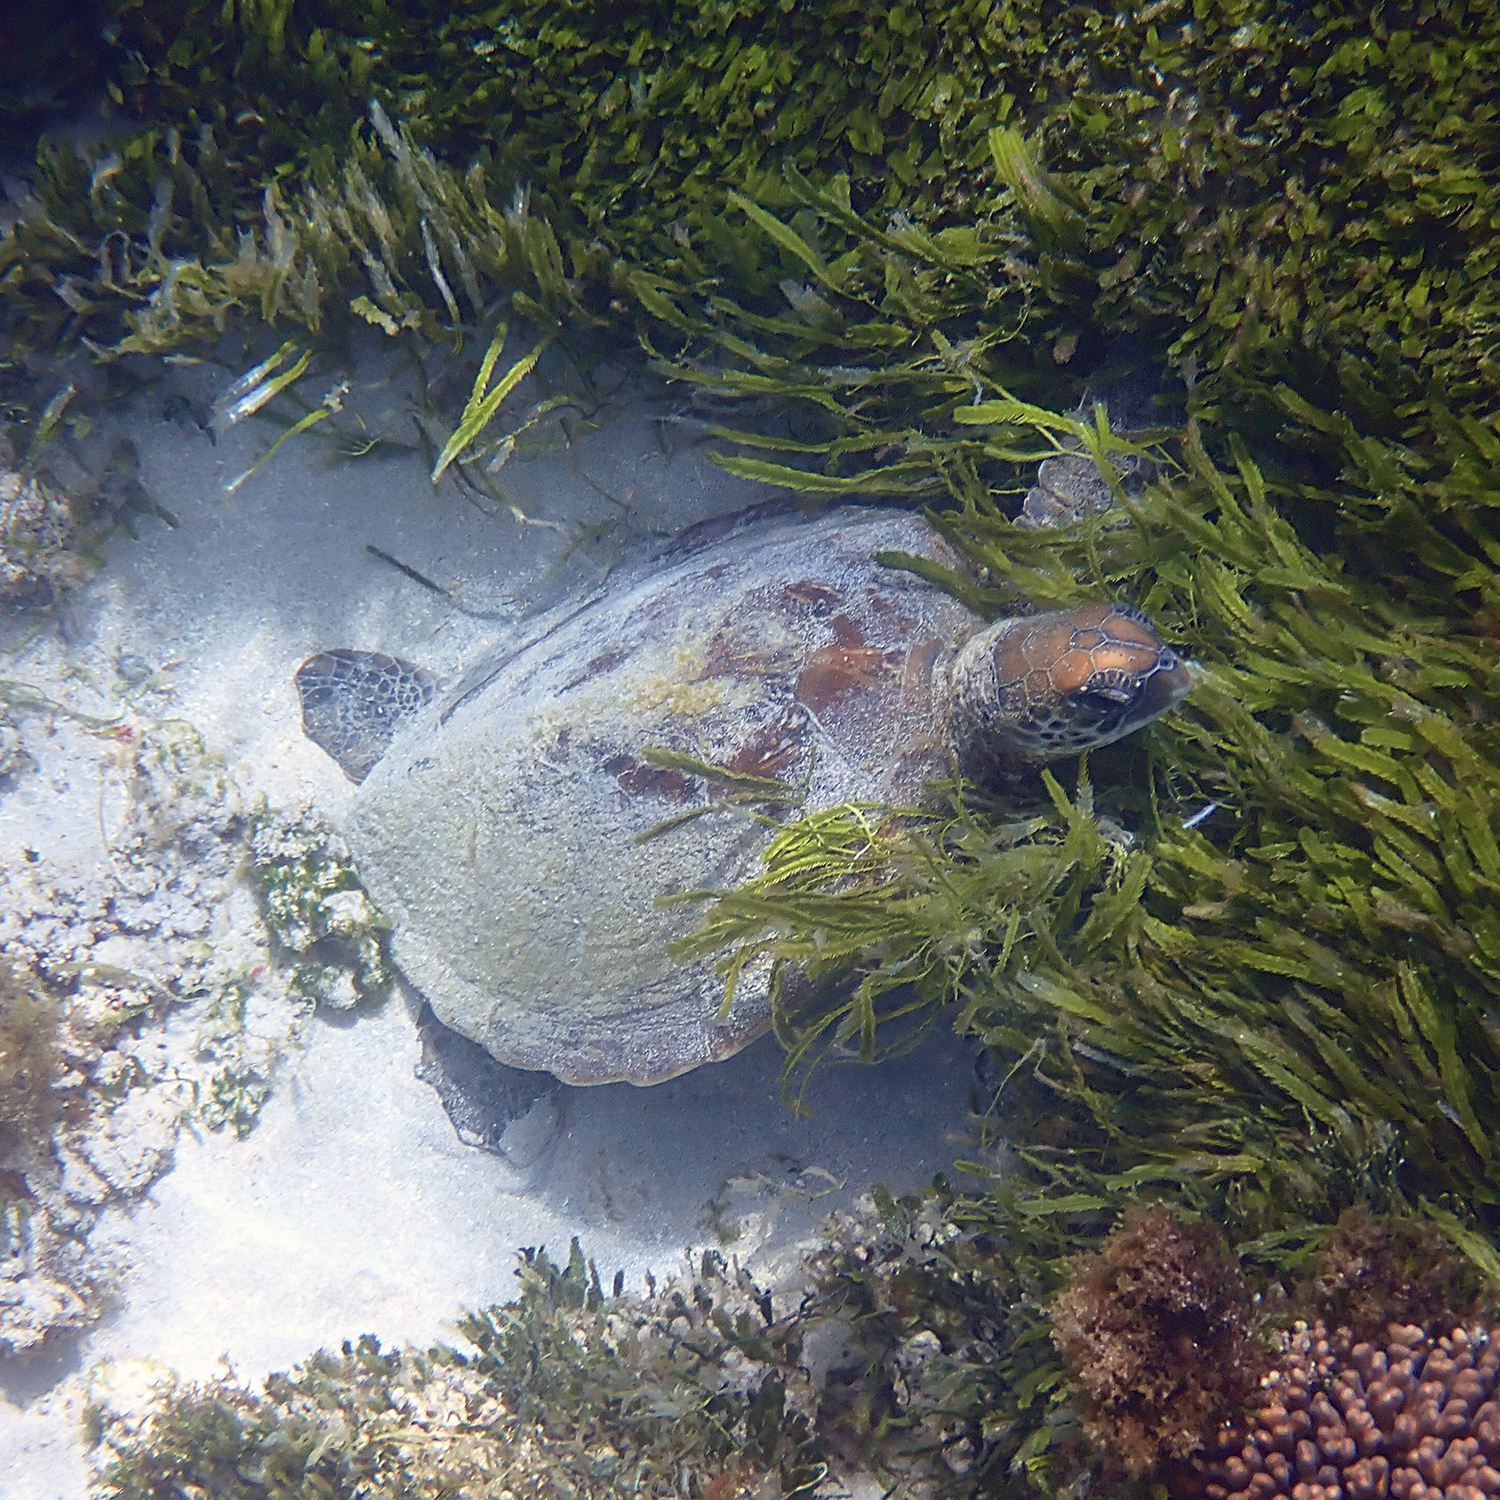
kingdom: Animalia
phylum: Chordata
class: Testudines
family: Cheloniidae
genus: Chelonia
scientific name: Chelonia mydas
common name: Green turtle
